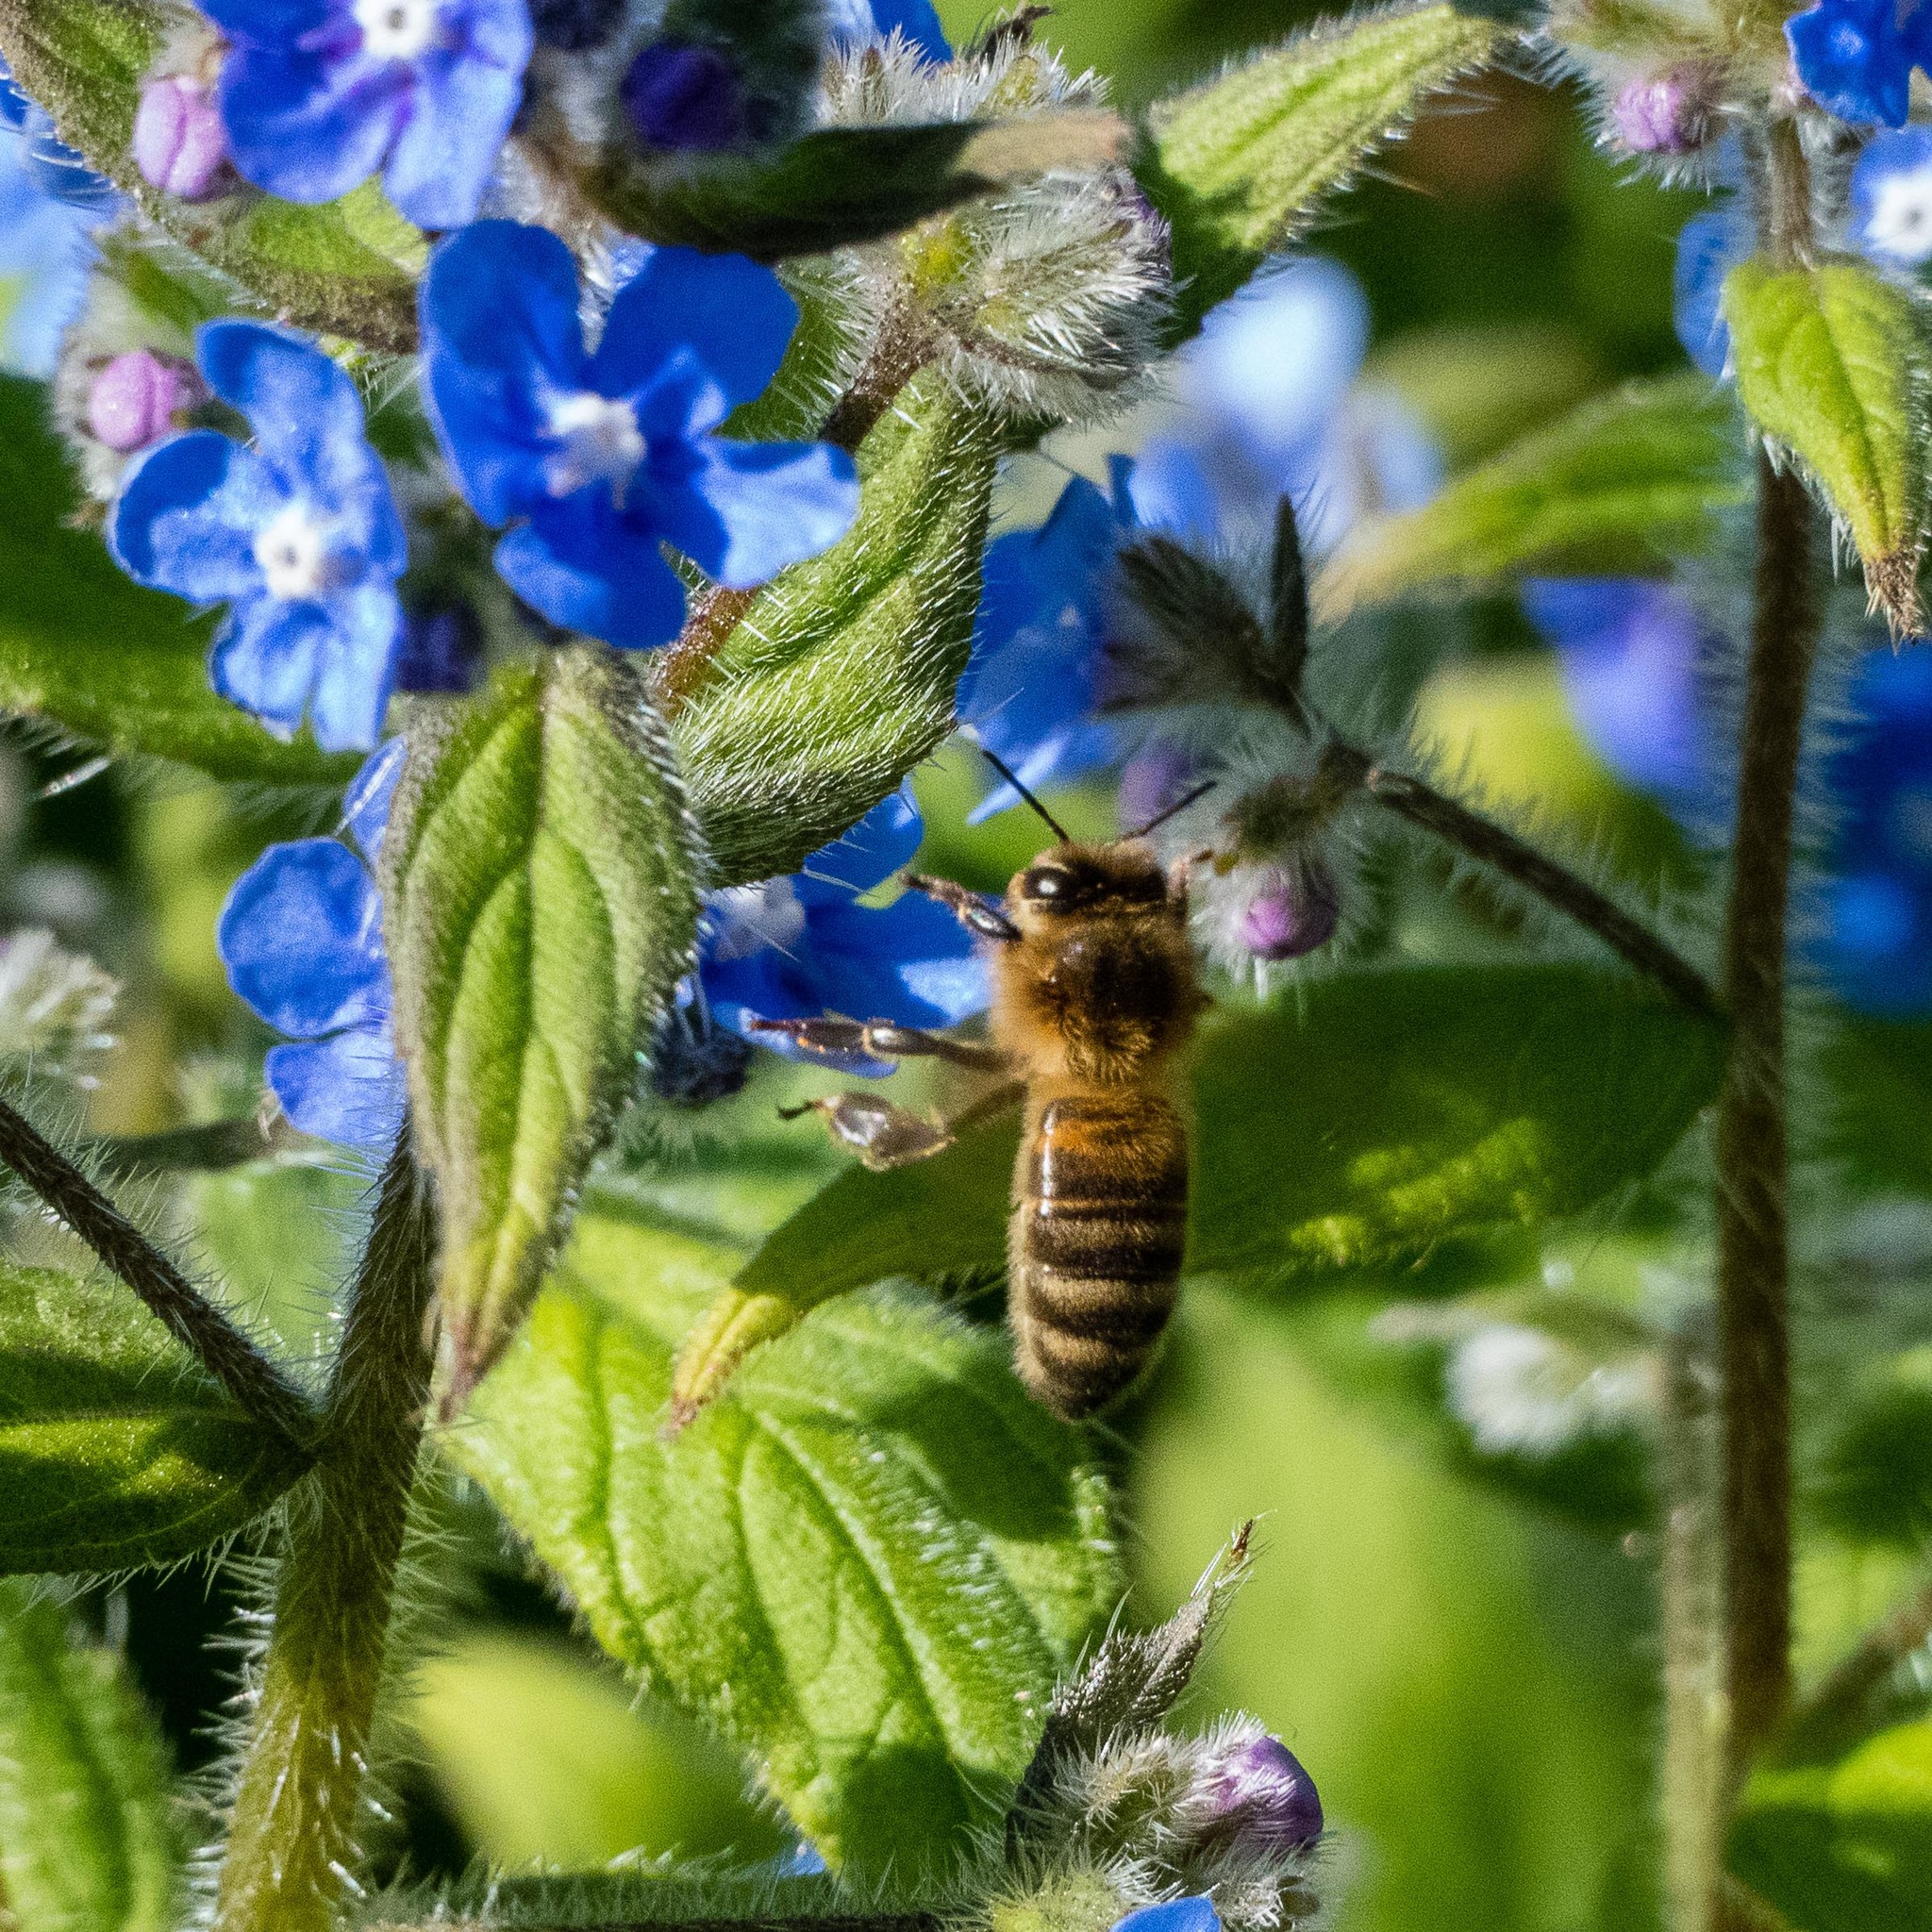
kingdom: Animalia
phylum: Arthropoda
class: Insecta
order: Hymenoptera
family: Apidae
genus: Apis
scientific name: Apis mellifera
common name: Honey bee
